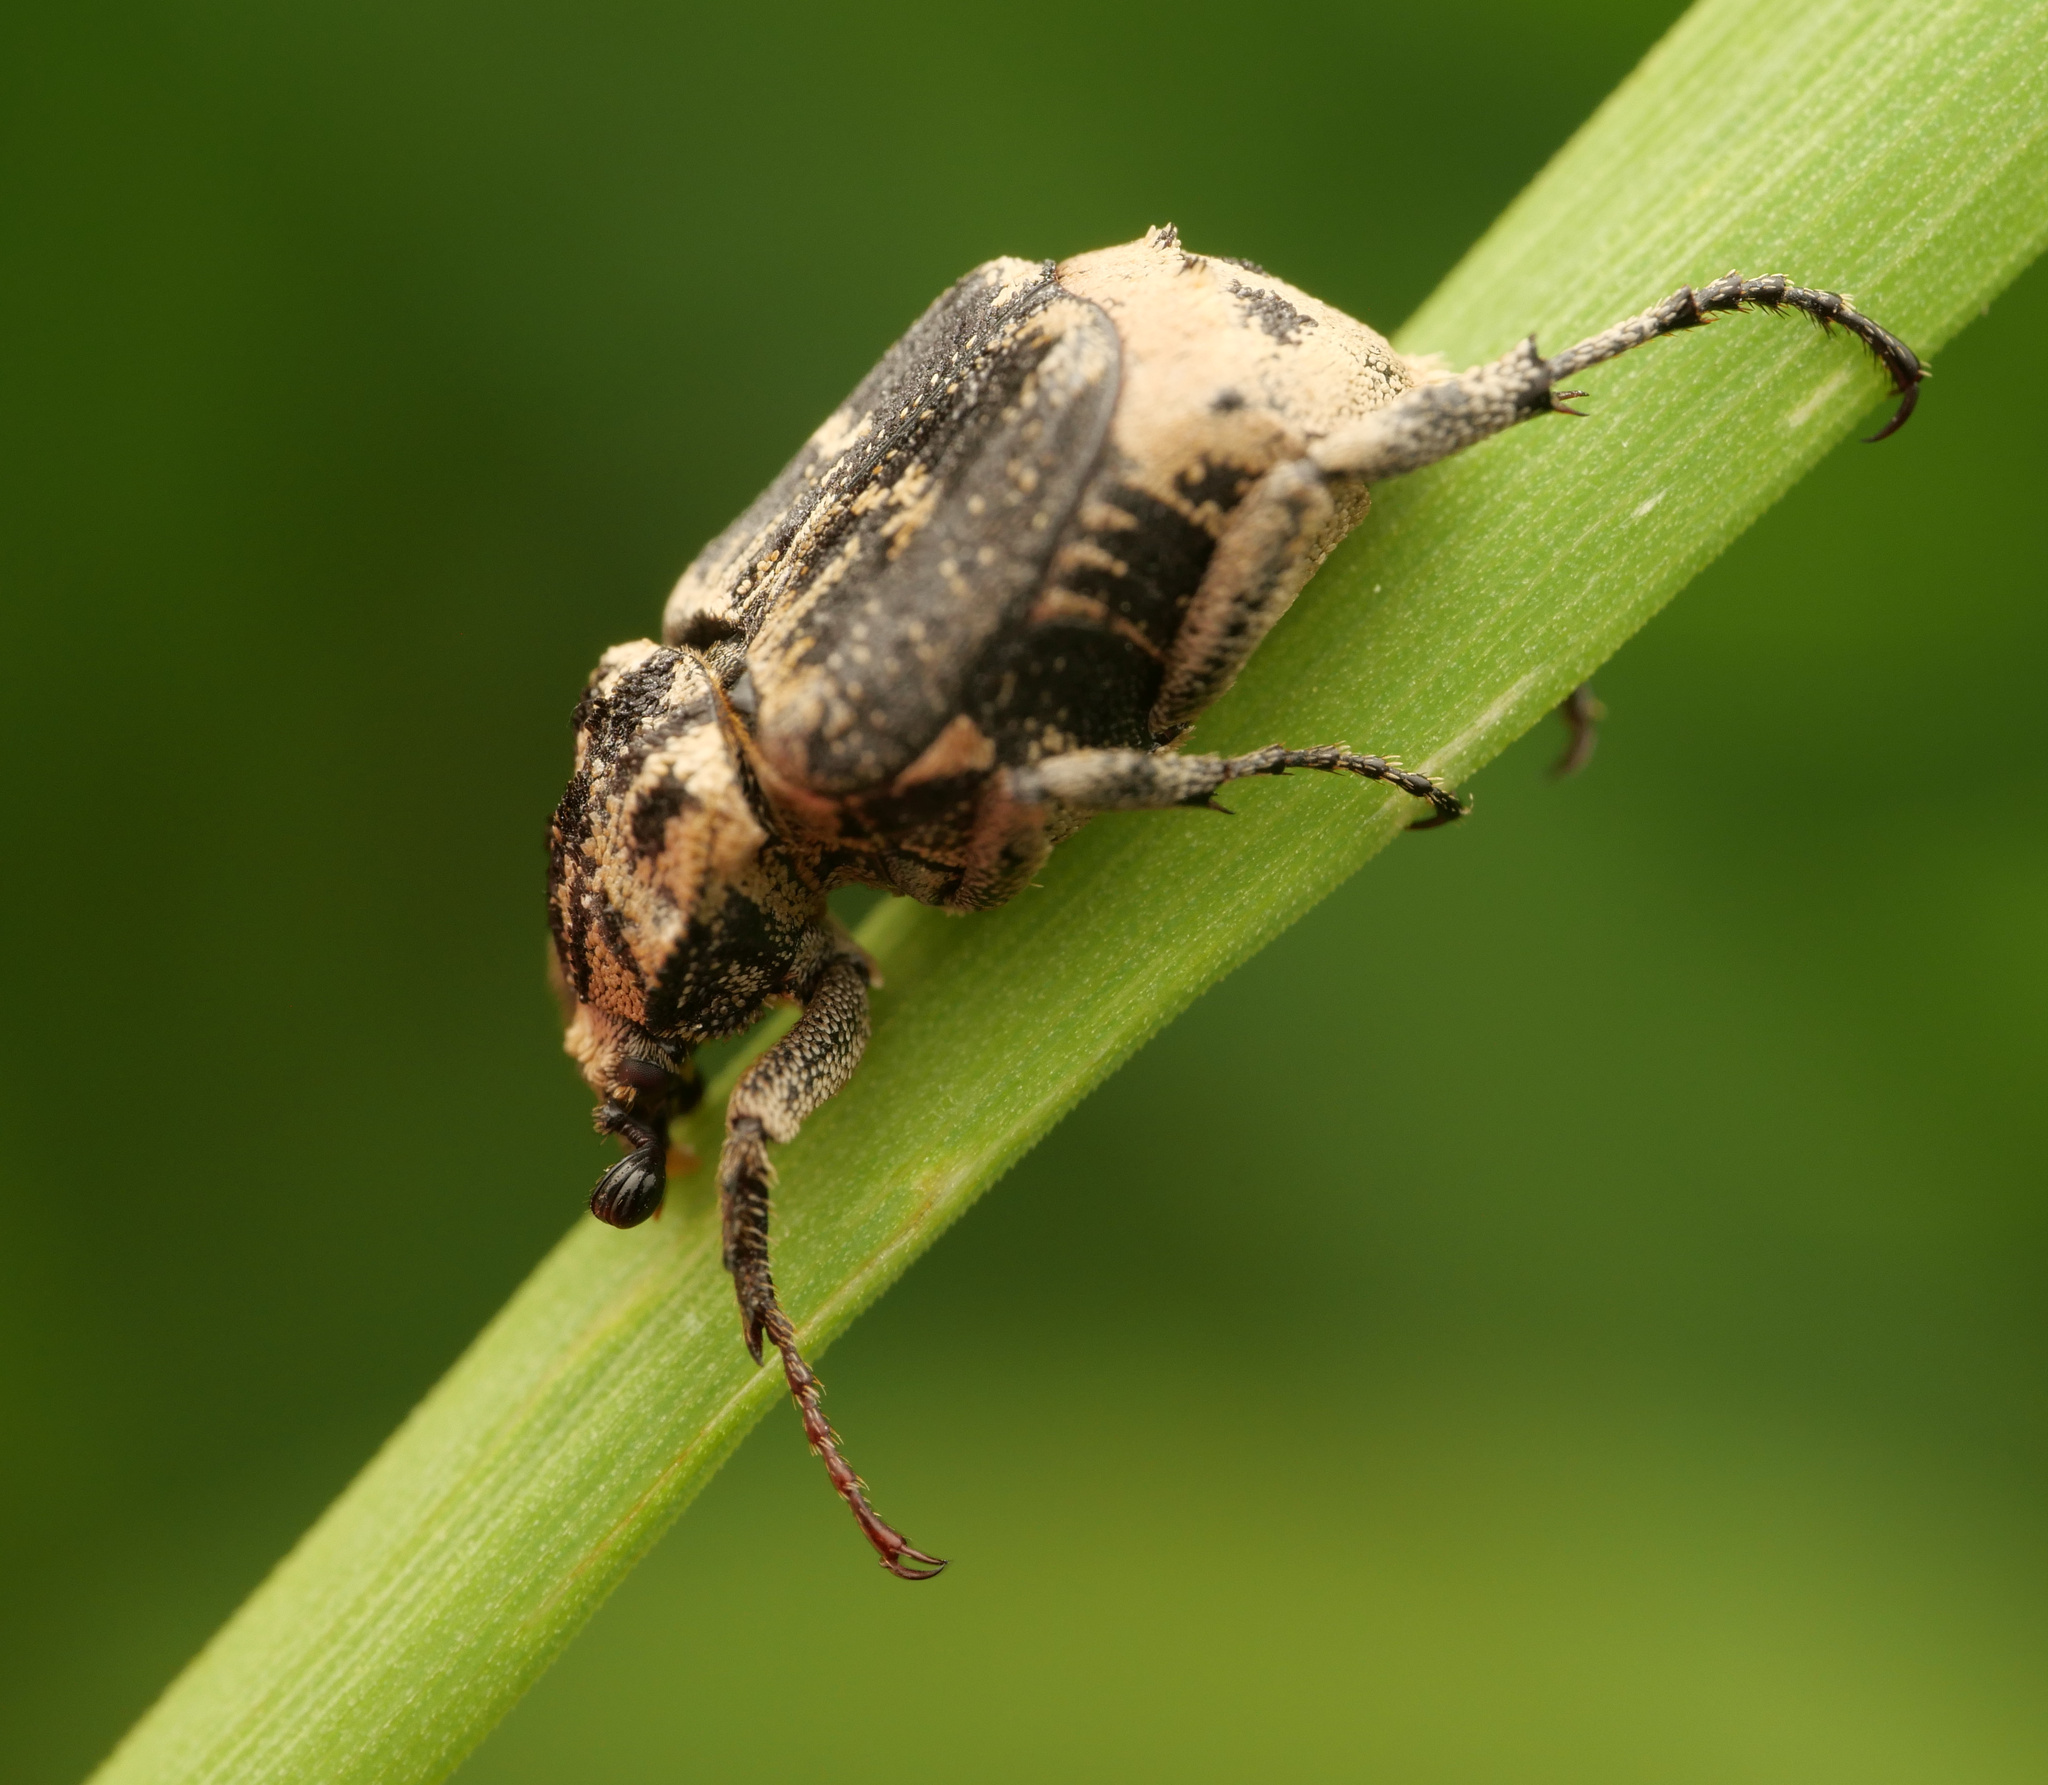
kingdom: Animalia
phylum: Arthropoda
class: Insecta
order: Coleoptera
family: Scarabaeidae
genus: Valgus
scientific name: Valgus hemipterus
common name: Bug flower chafer
